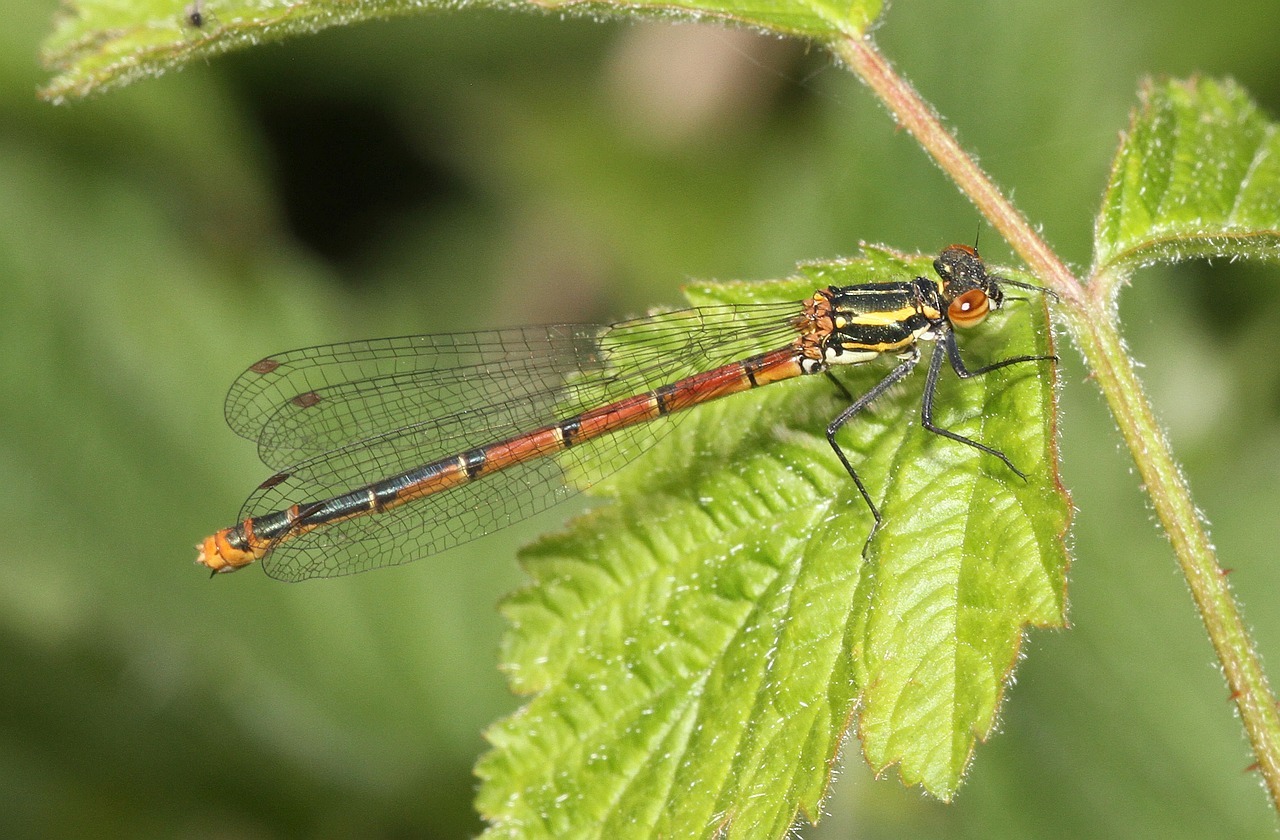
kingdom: Animalia
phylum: Arthropoda
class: Insecta
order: Odonata
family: Coenagrionidae
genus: Pyrrhosoma
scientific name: Pyrrhosoma nymphula
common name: Large red damsel
